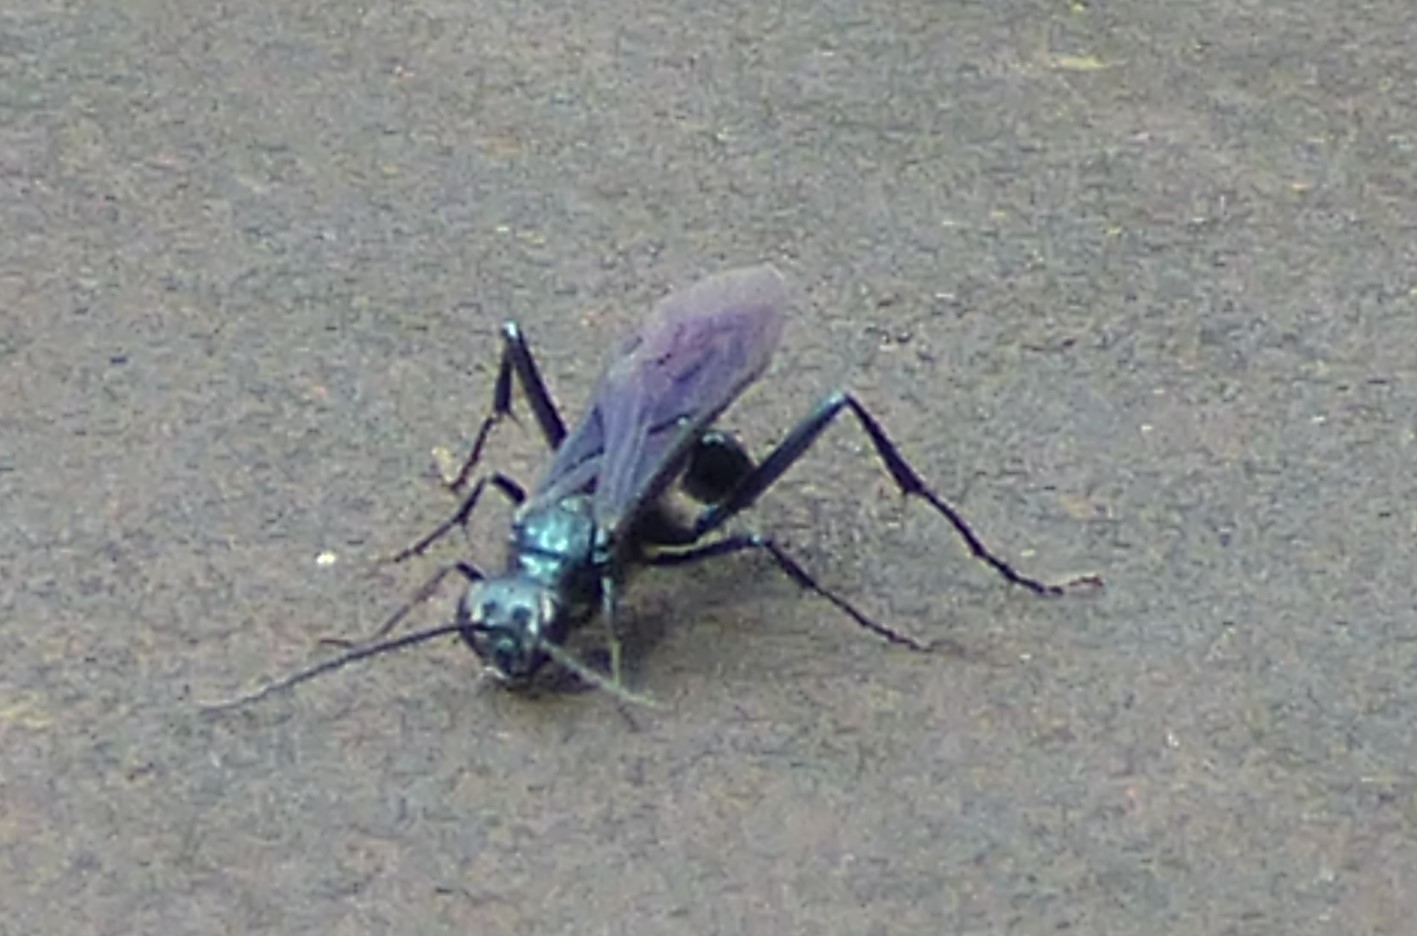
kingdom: Animalia
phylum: Arthropoda
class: Insecta
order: Hymenoptera
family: Sphecidae
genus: Chalybion
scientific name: Chalybion californicum
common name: Mud dauber
